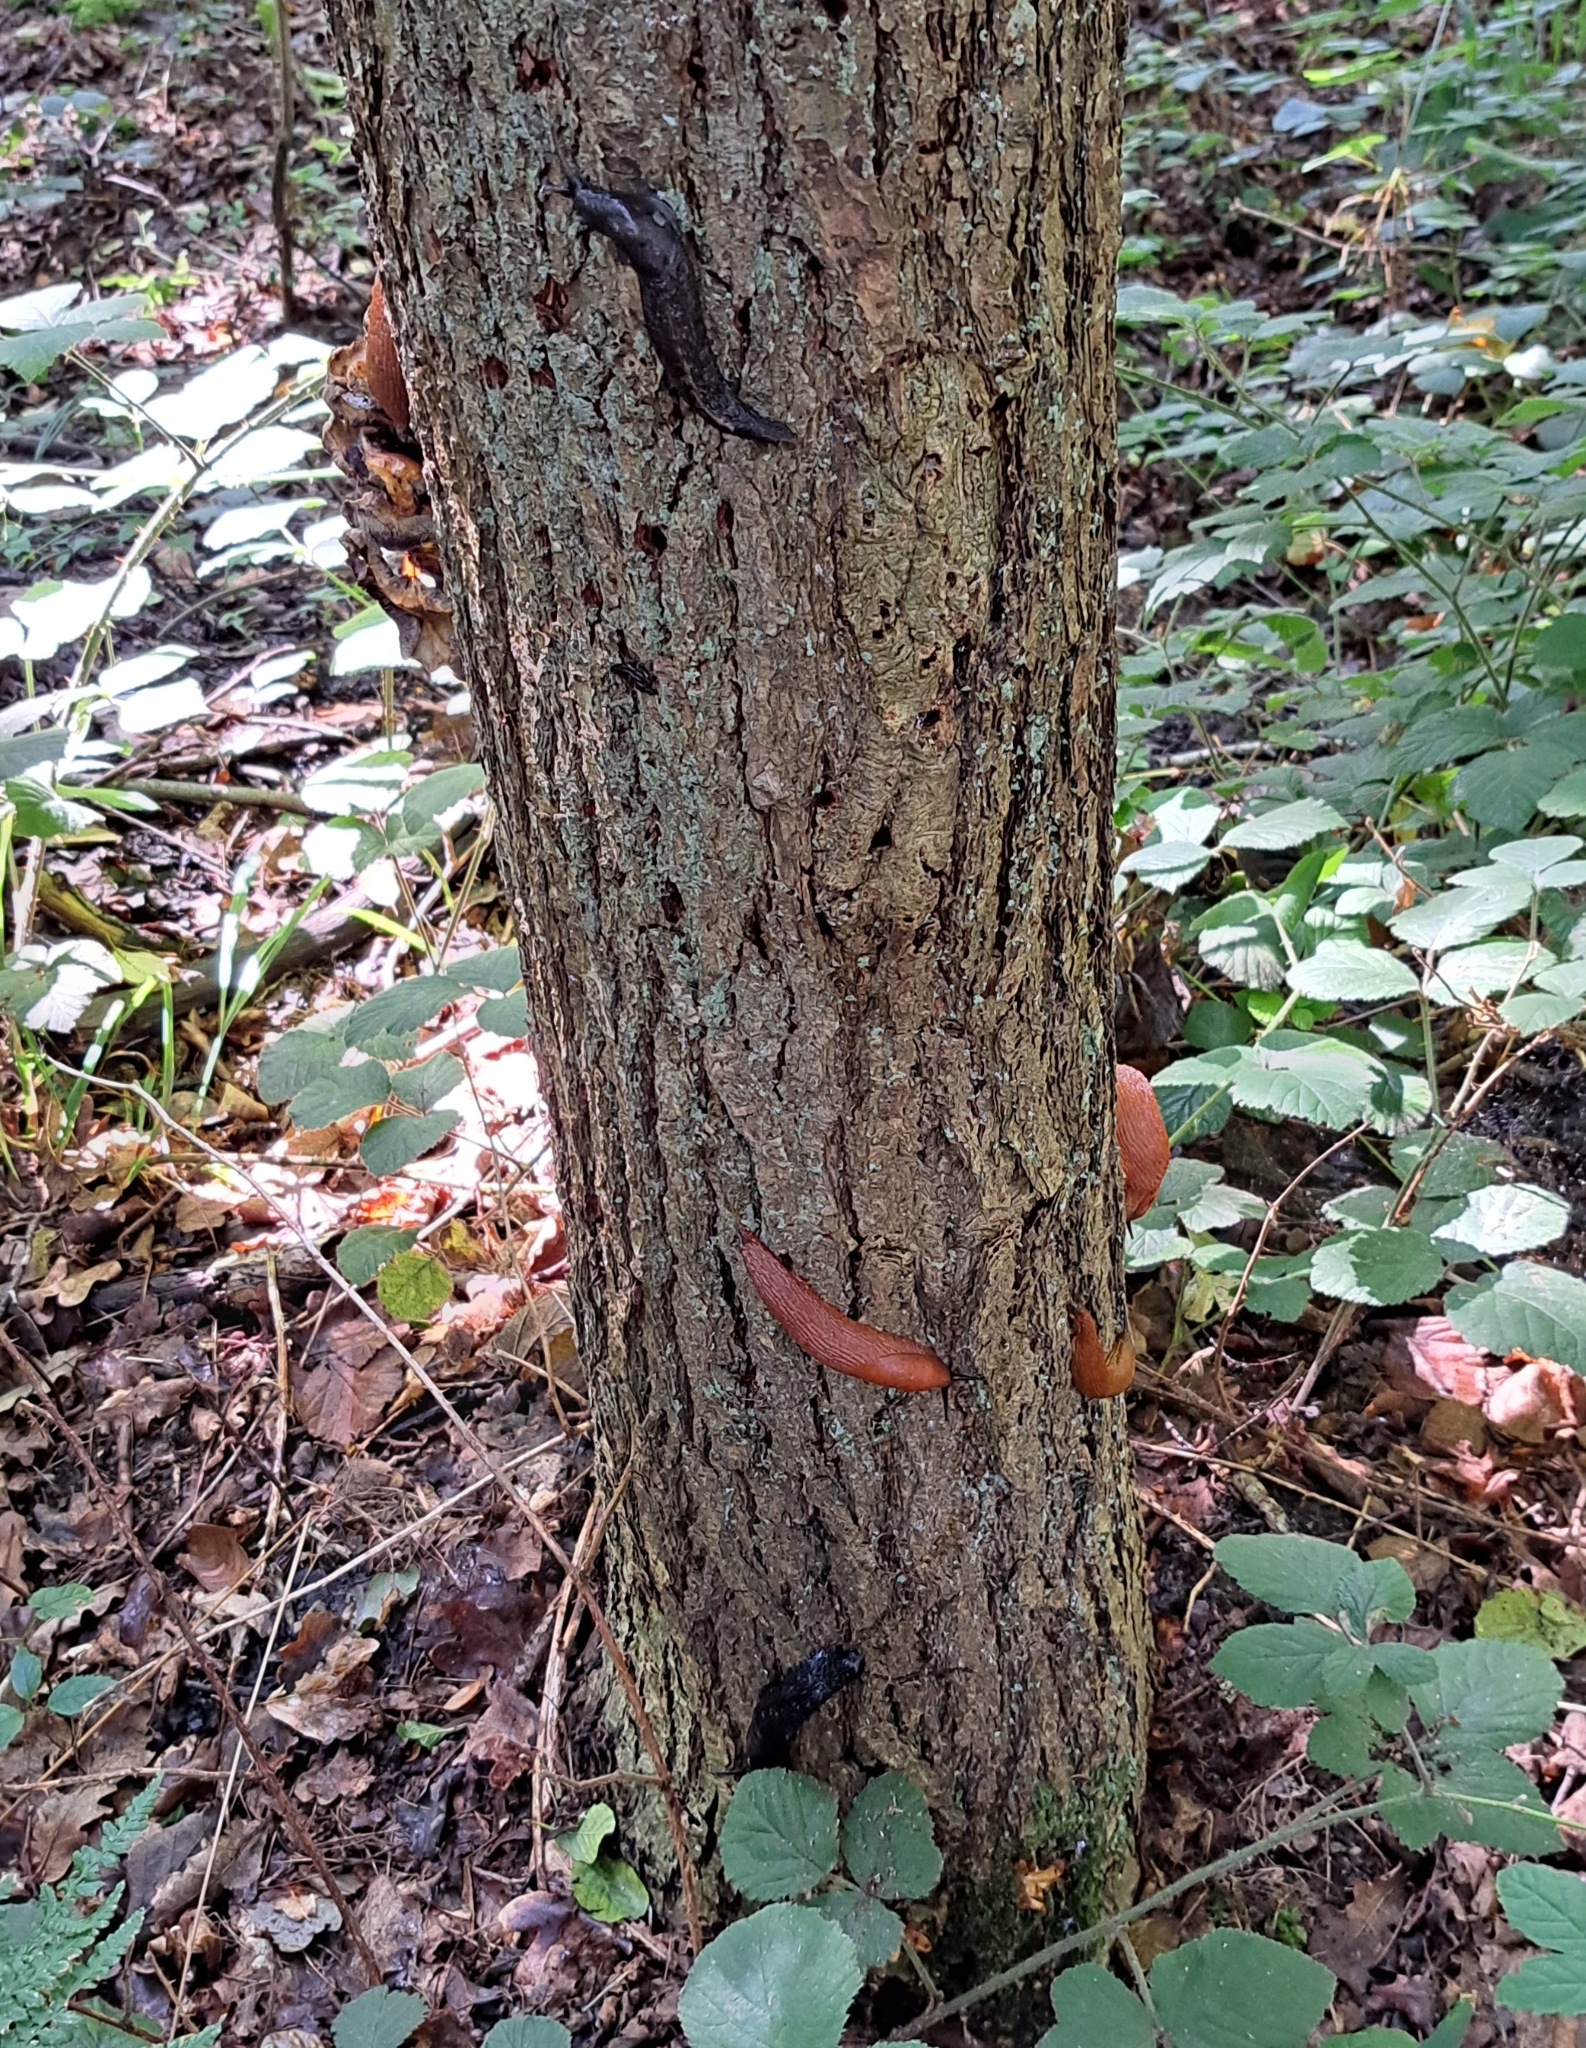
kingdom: Animalia
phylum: Mollusca
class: Gastropoda
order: Stylommatophora
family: Limacidae
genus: Limax
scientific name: Limax cinereoniger
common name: Ash-black slug
